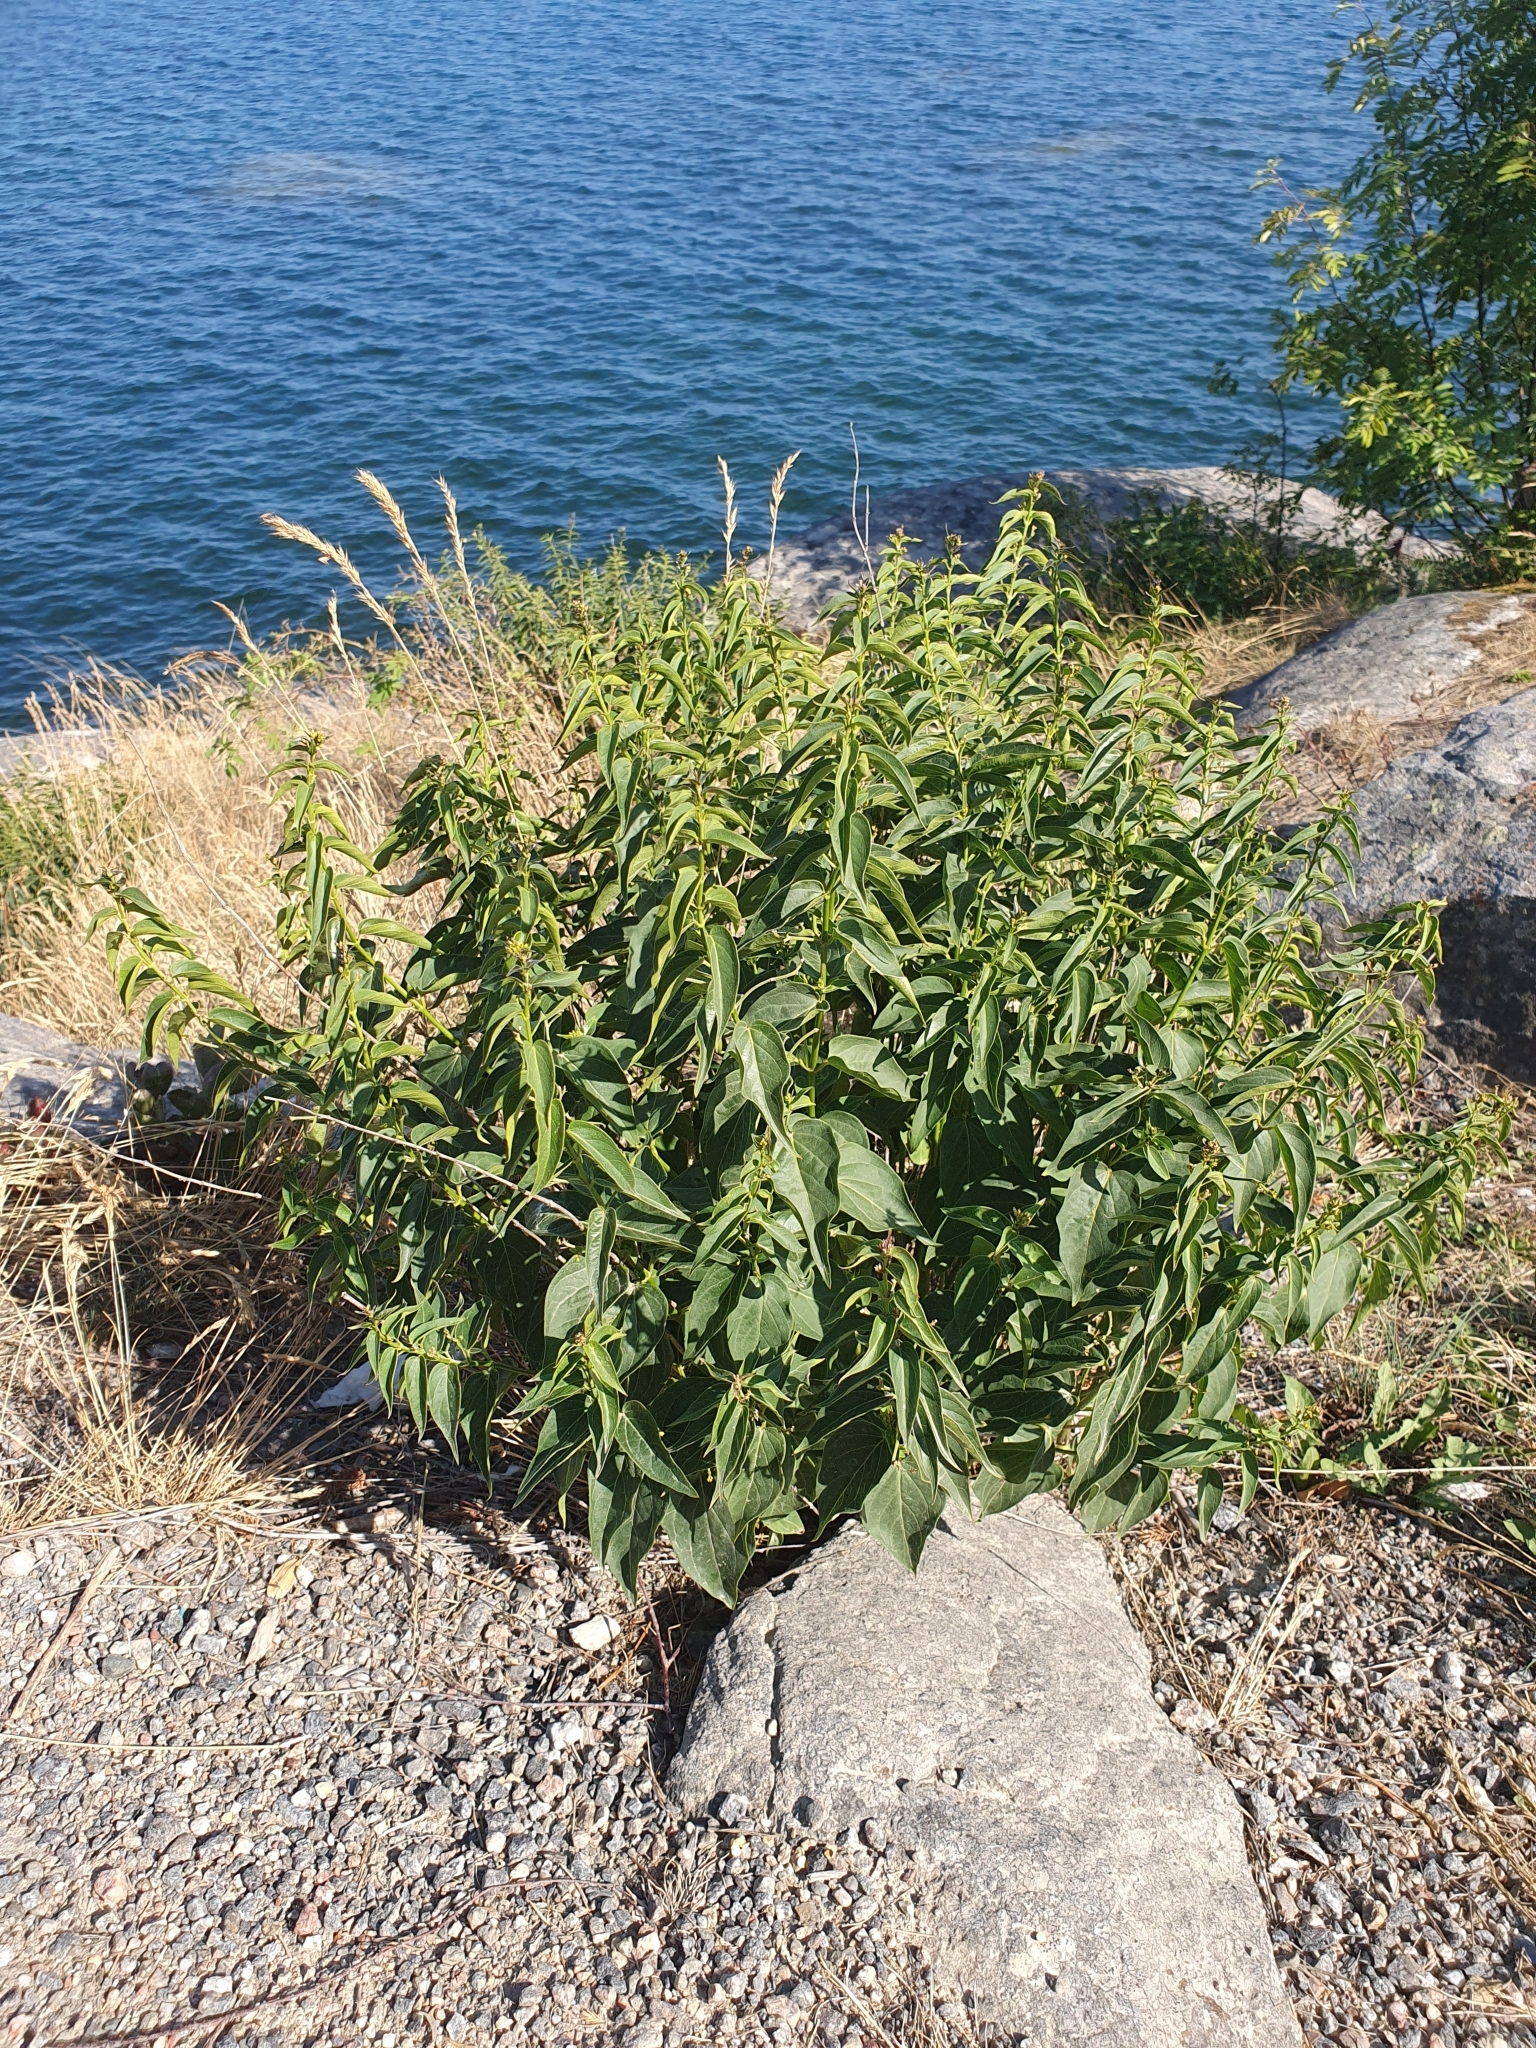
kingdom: Plantae
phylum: Tracheophyta
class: Magnoliopsida
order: Gentianales
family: Apocynaceae
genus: Vincetoxicum
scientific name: Vincetoxicum hirundinaria
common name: White swallowwort
